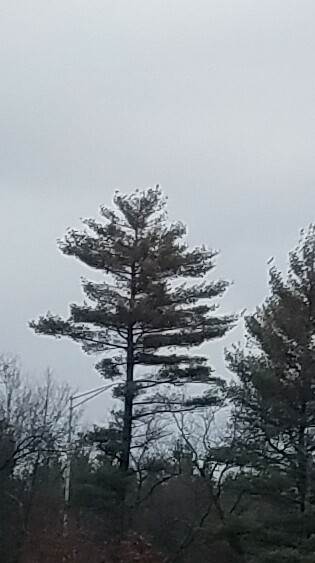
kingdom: Plantae
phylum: Tracheophyta
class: Pinopsida
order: Pinales
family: Pinaceae
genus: Pinus
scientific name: Pinus strobus
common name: Weymouth pine
